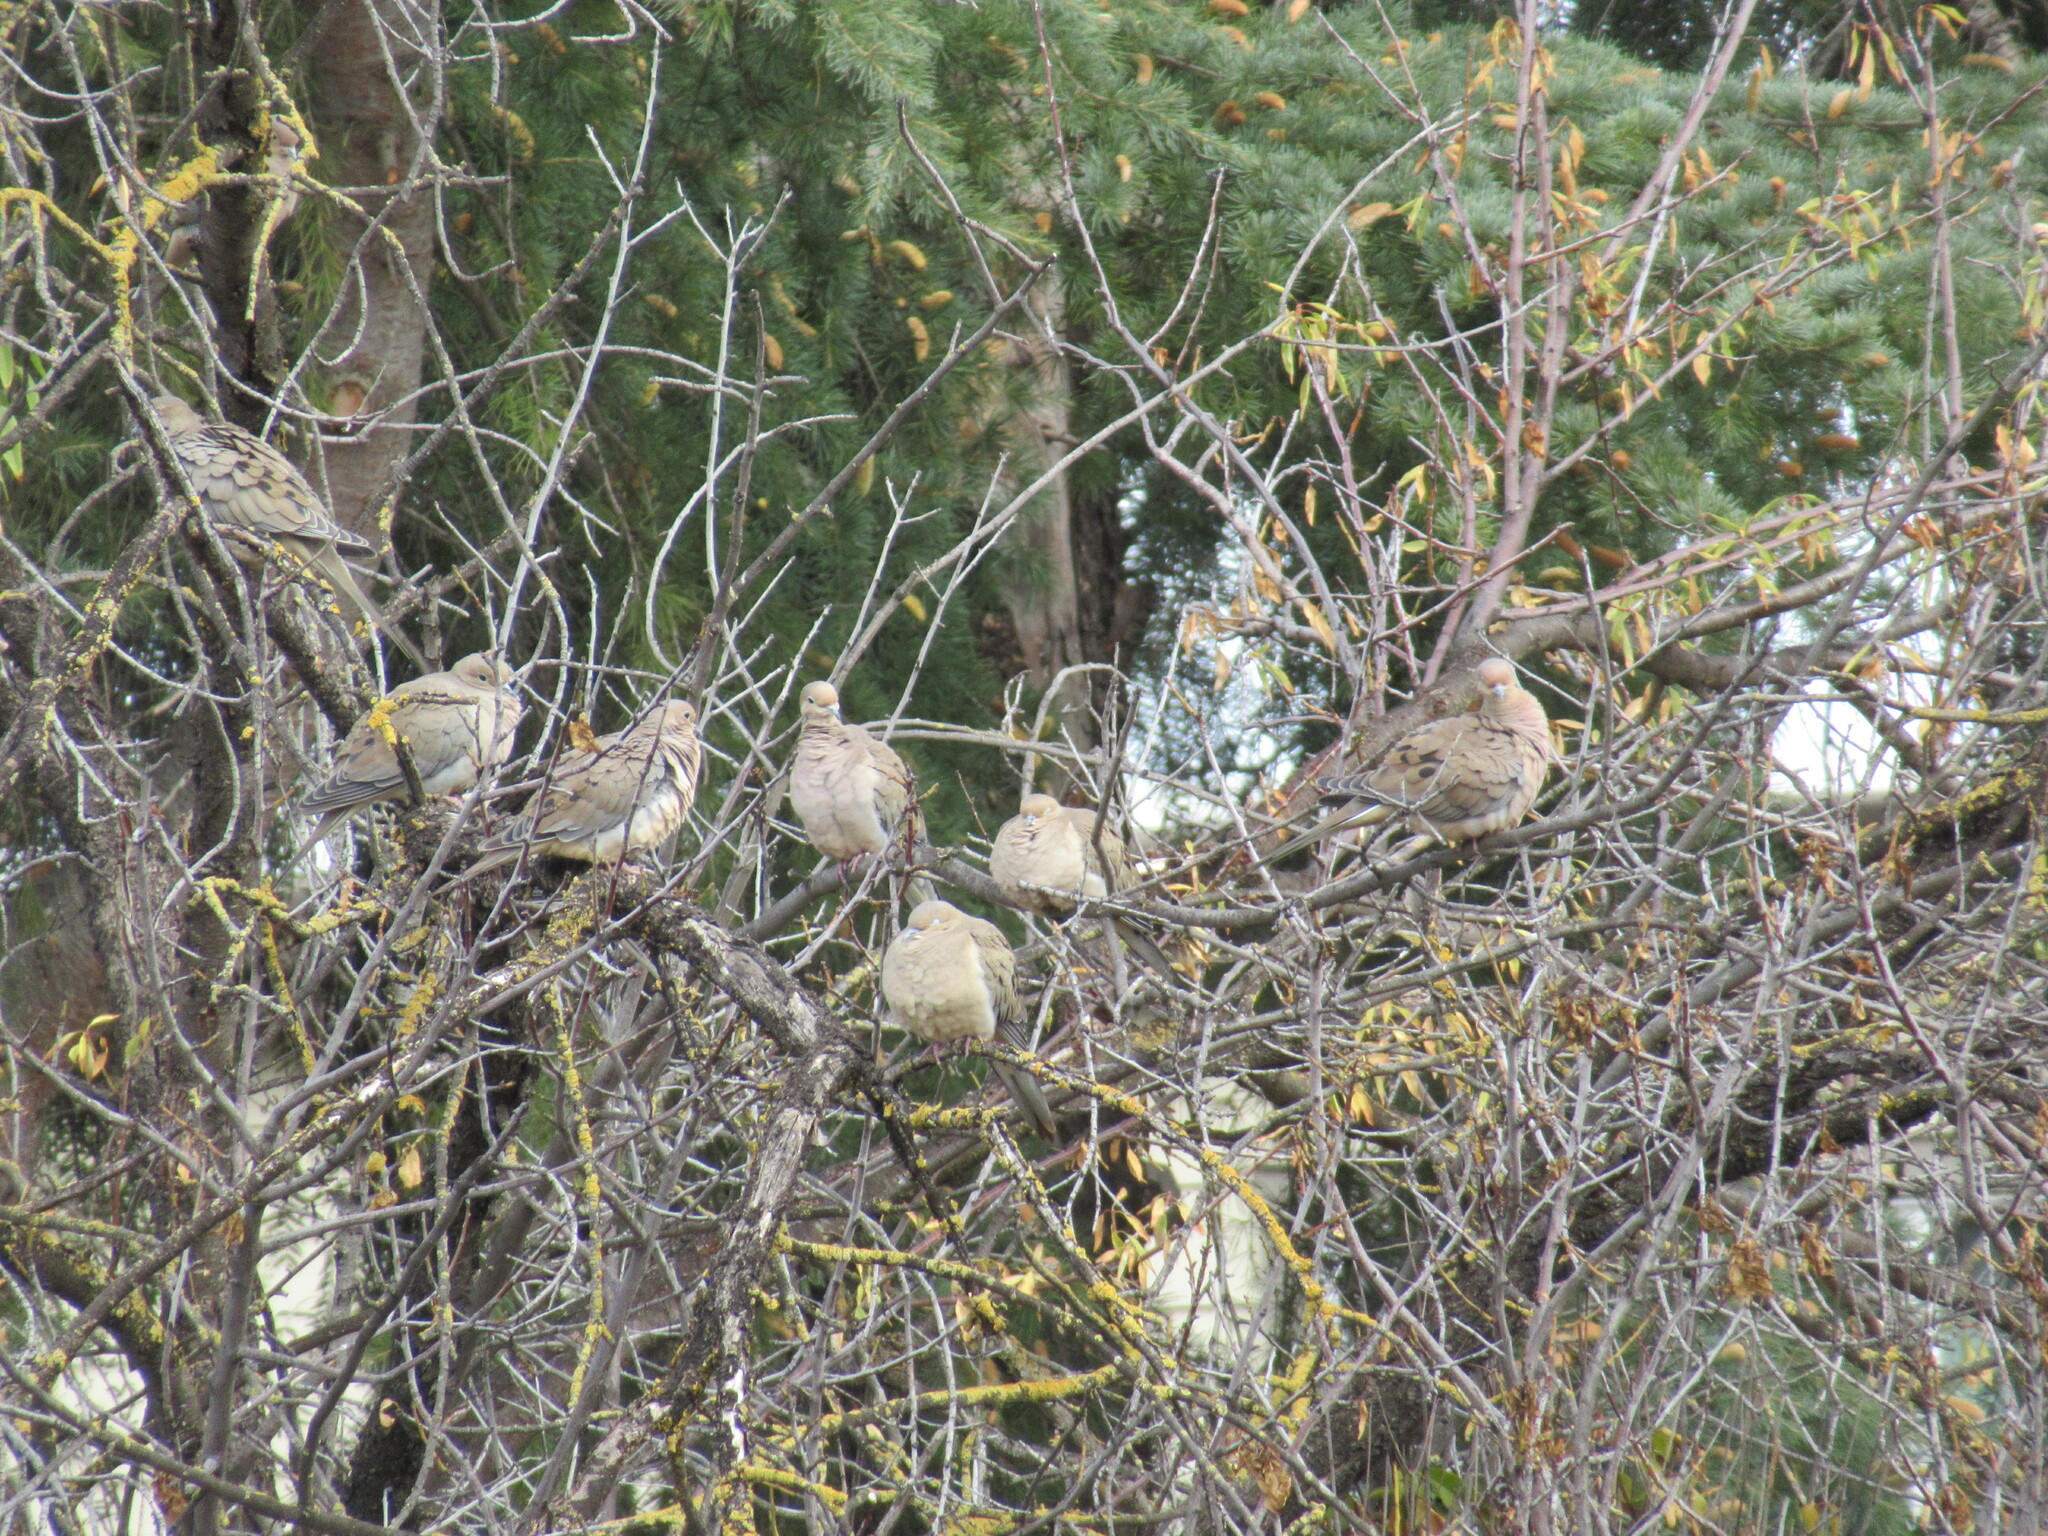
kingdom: Animalia
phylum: Chordata
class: Aves
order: Columbiformes
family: Columbidae
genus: Zenaida
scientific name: Zenaida macroura
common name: Mourning dove
